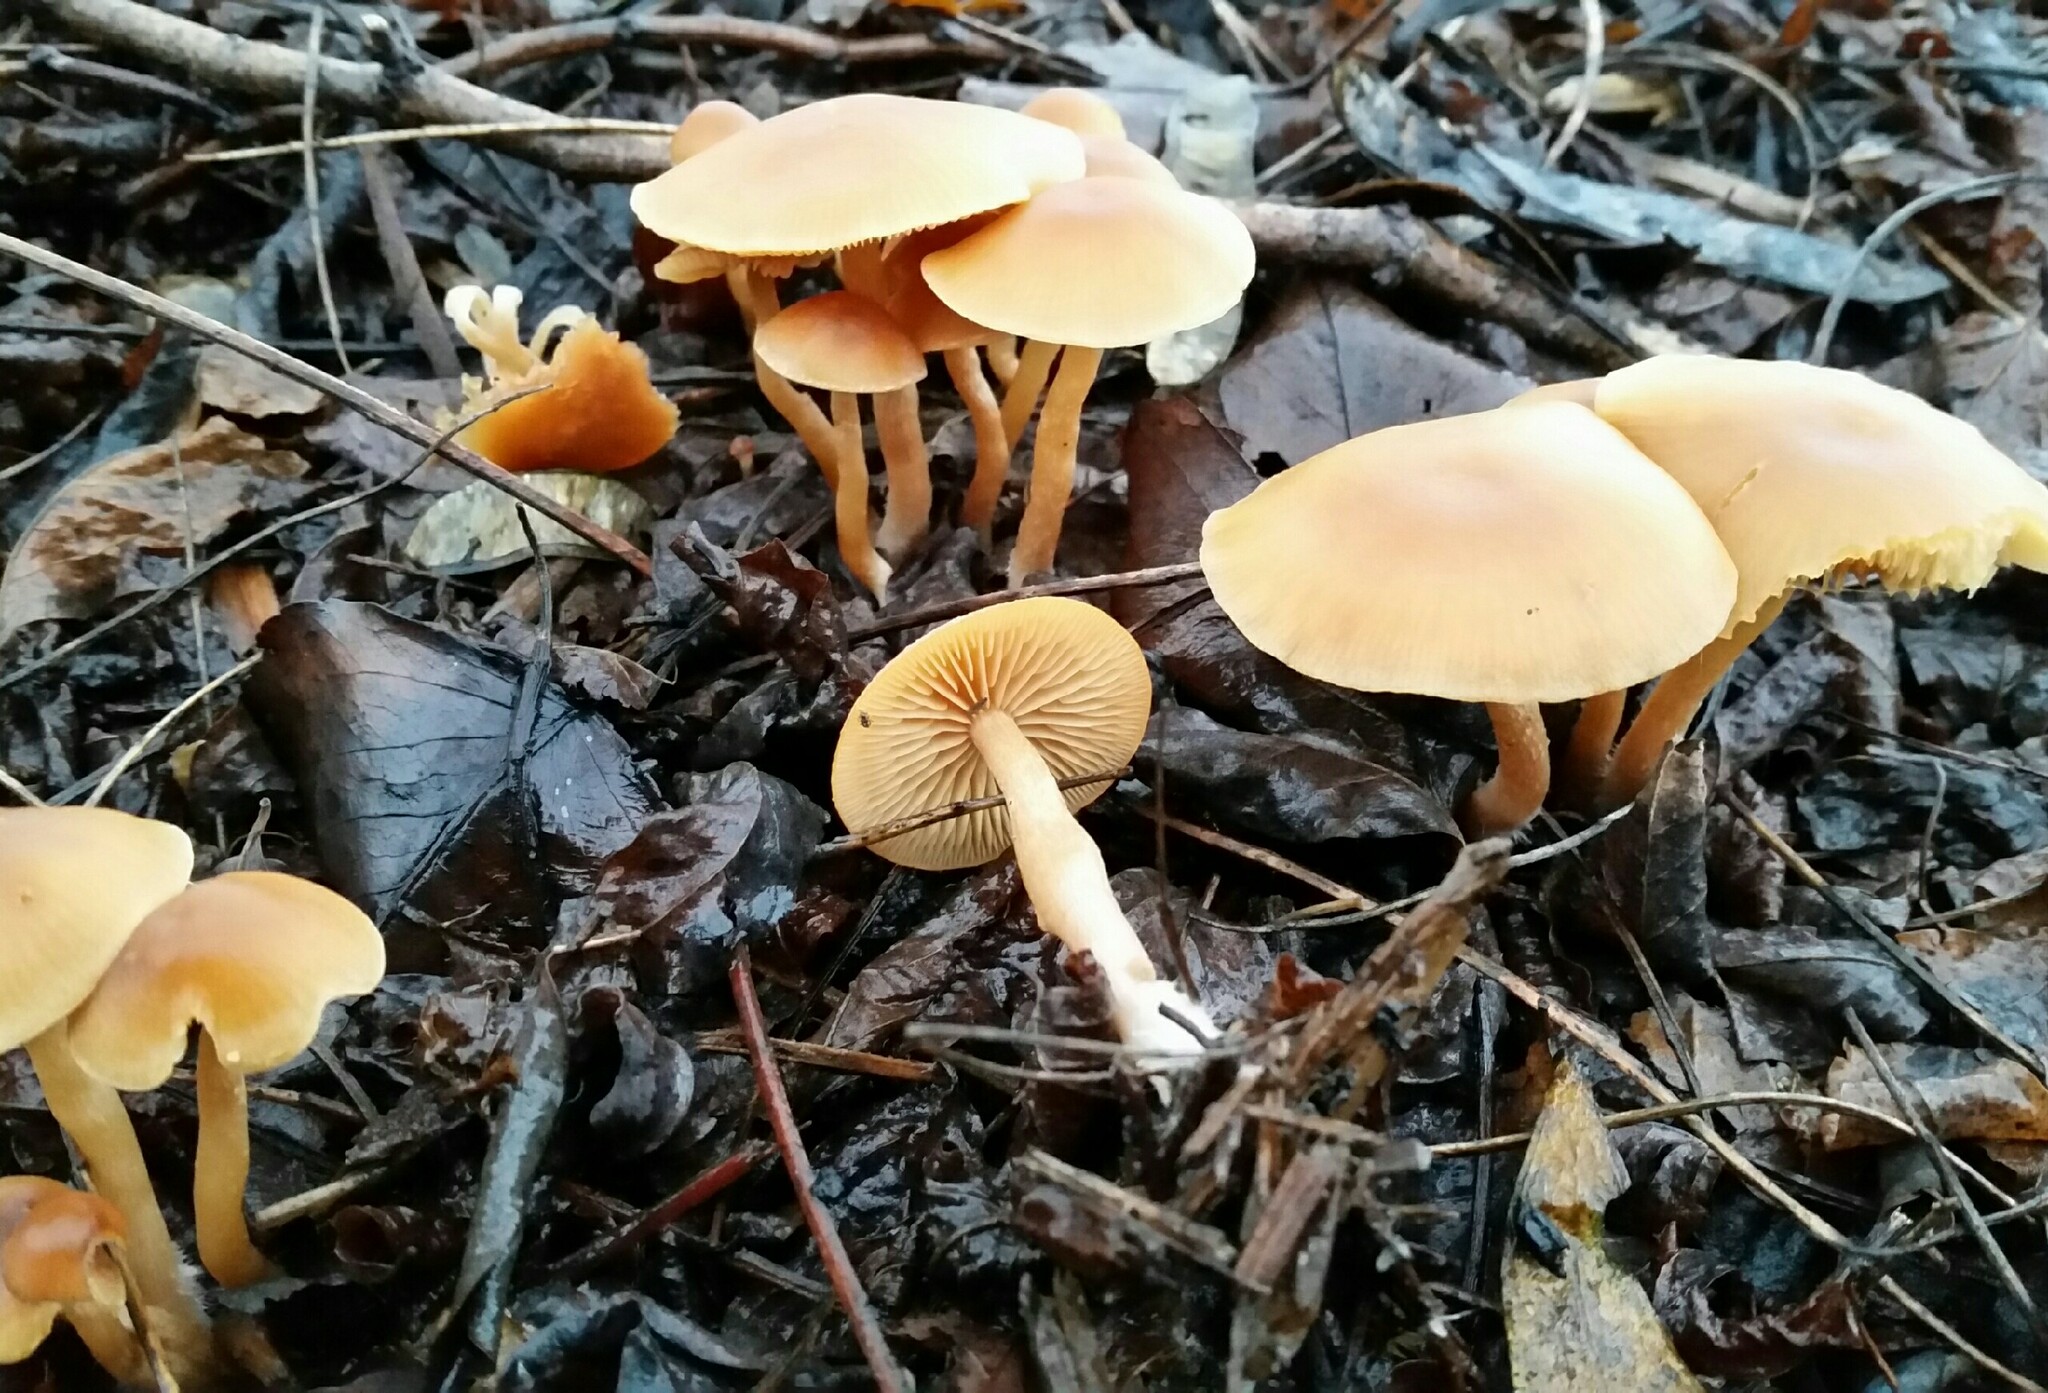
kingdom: Fungi
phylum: Basidiomycota
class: Agaricomycetes
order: Agaricales
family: Tubariaceae
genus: Tubaria
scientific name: Tubaria furfuracea
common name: Scurfy twiglet
